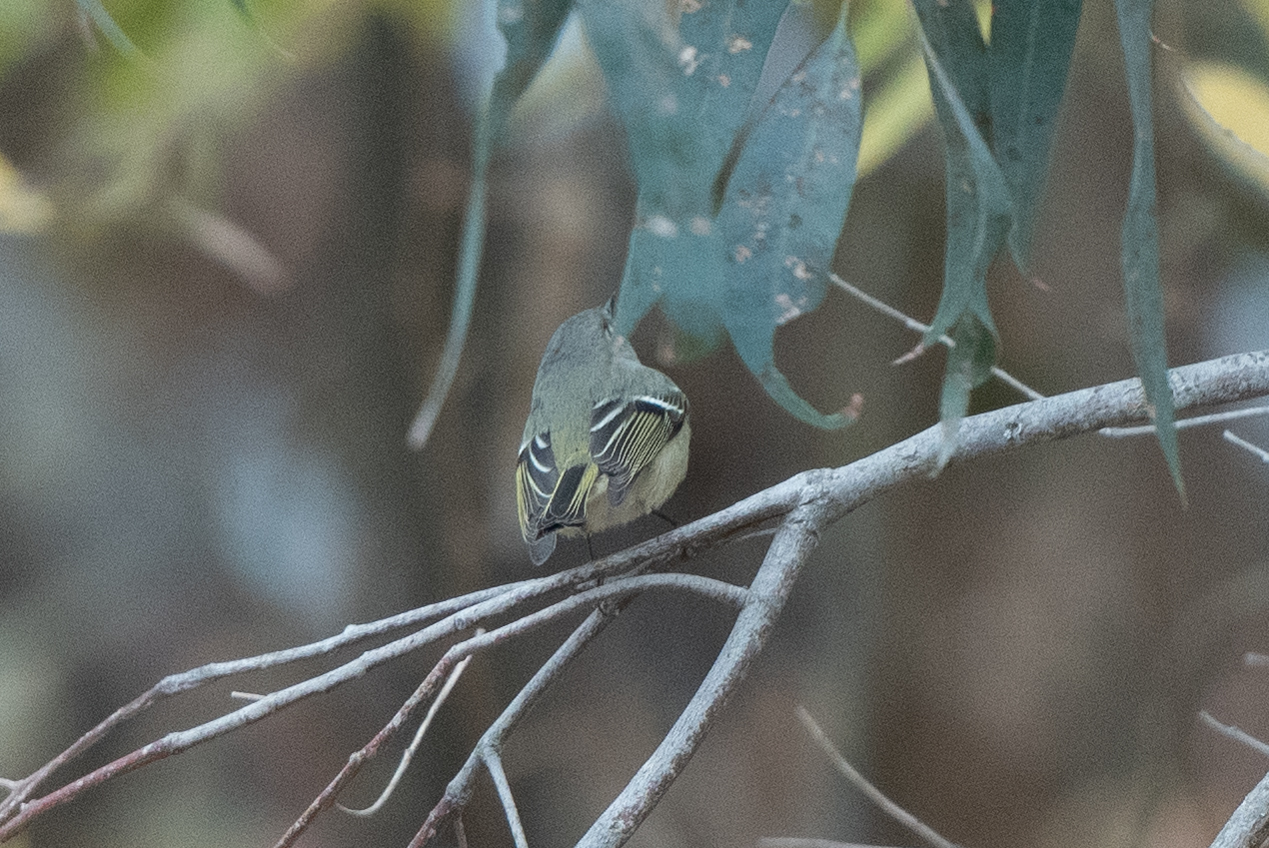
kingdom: Animalia
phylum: Chordata
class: Aves
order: Passeriformes
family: Regulidae
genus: Regulus
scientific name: Regulus calendula
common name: Ruby-crowned kinglet
